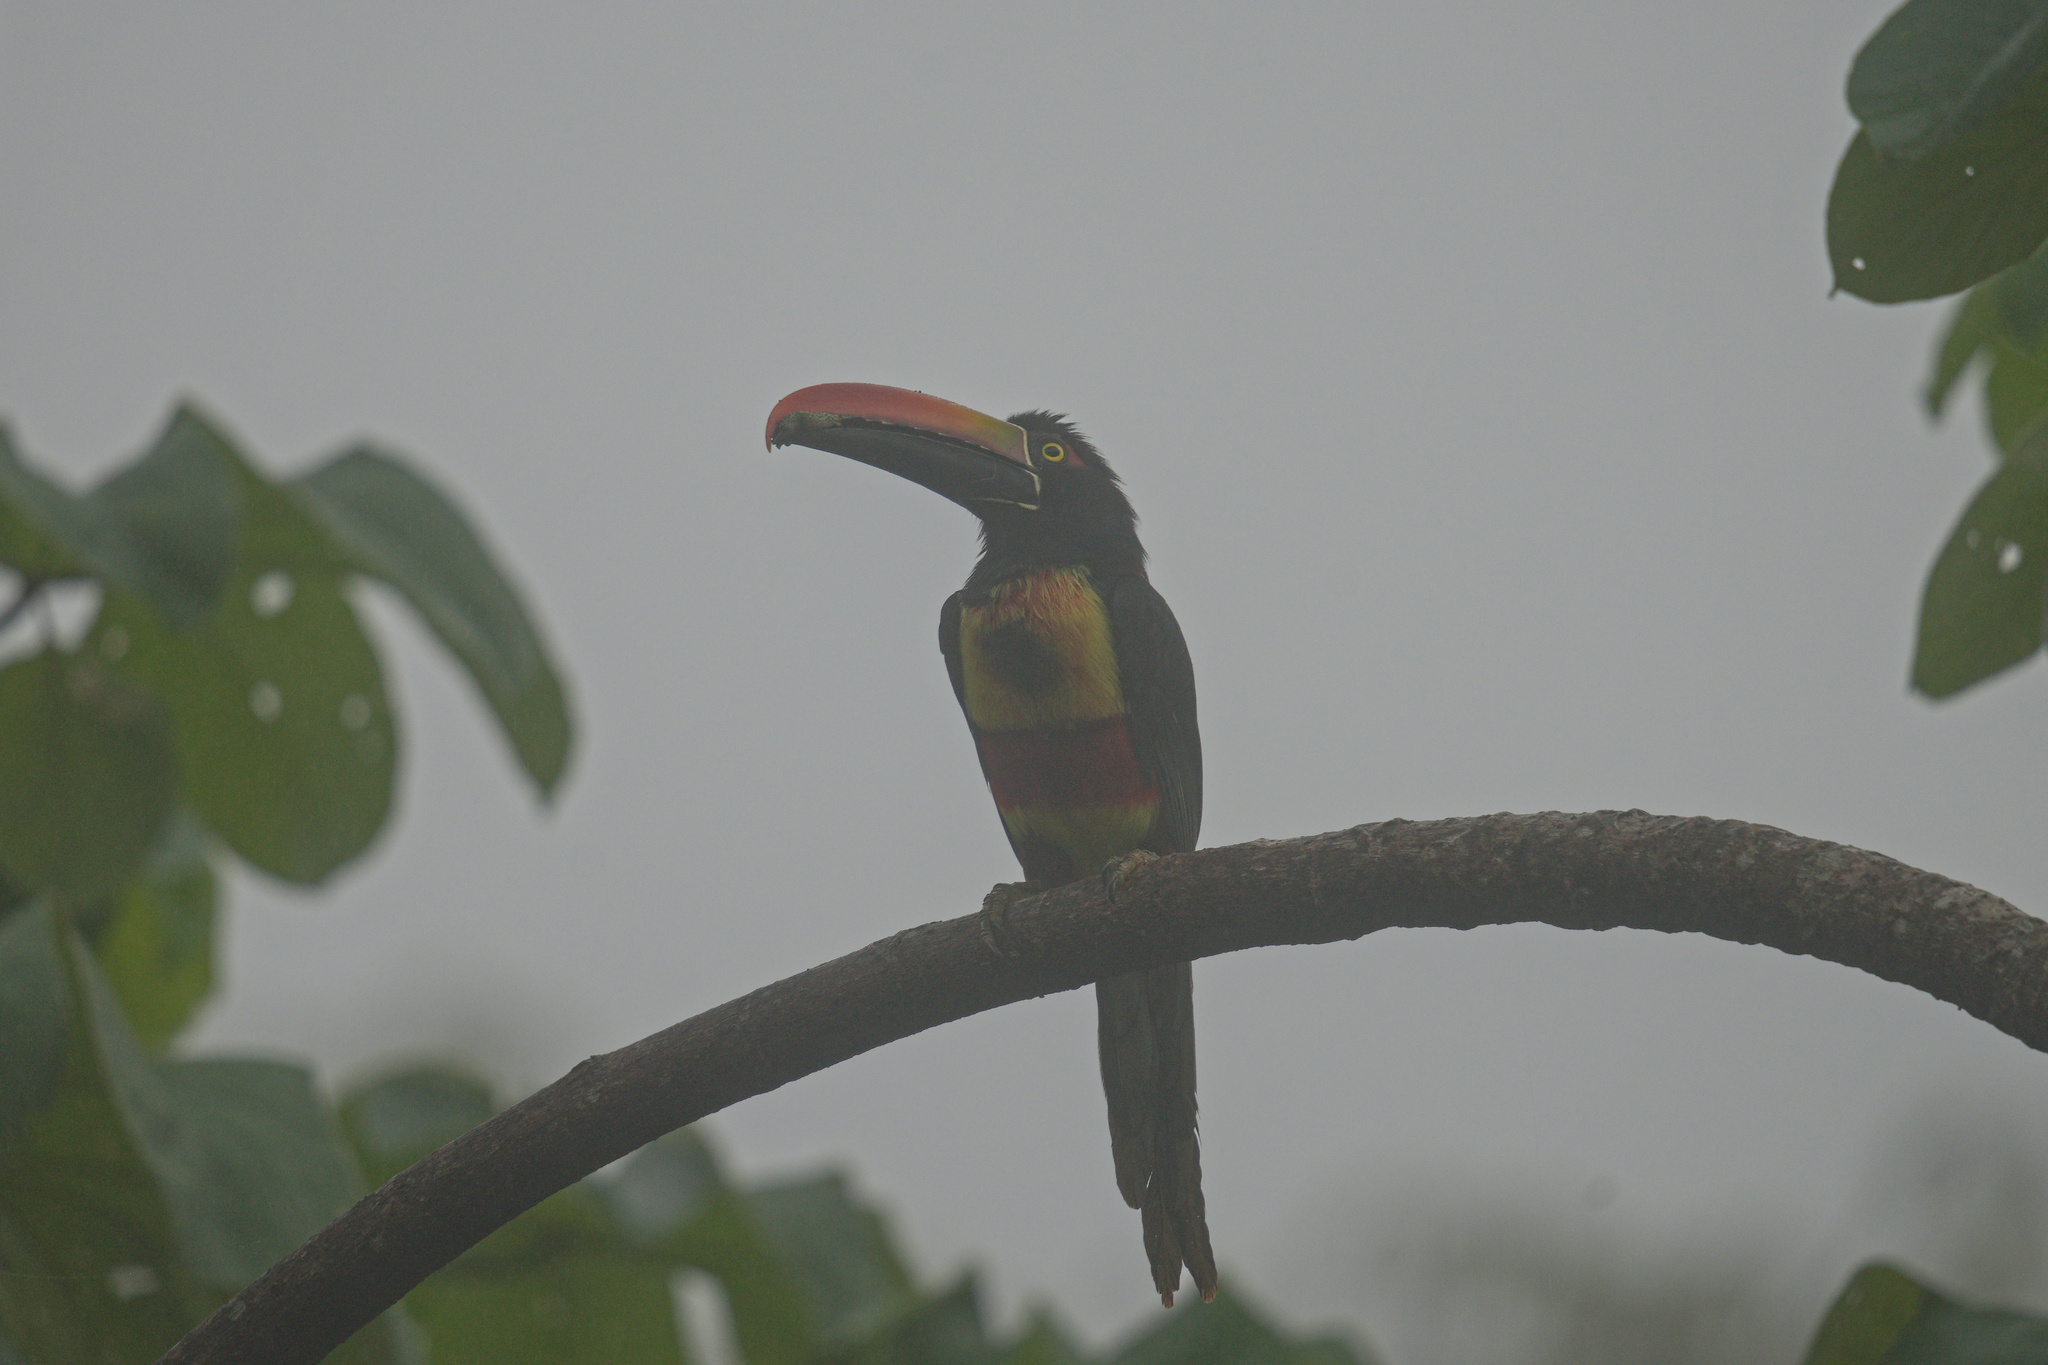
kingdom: Animalia
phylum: Chordata
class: Aves
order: Piciformes
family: Ramphastidae
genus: Pteroglossus
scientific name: Pteroglossus frantzii
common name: Fiery-billed aracari
